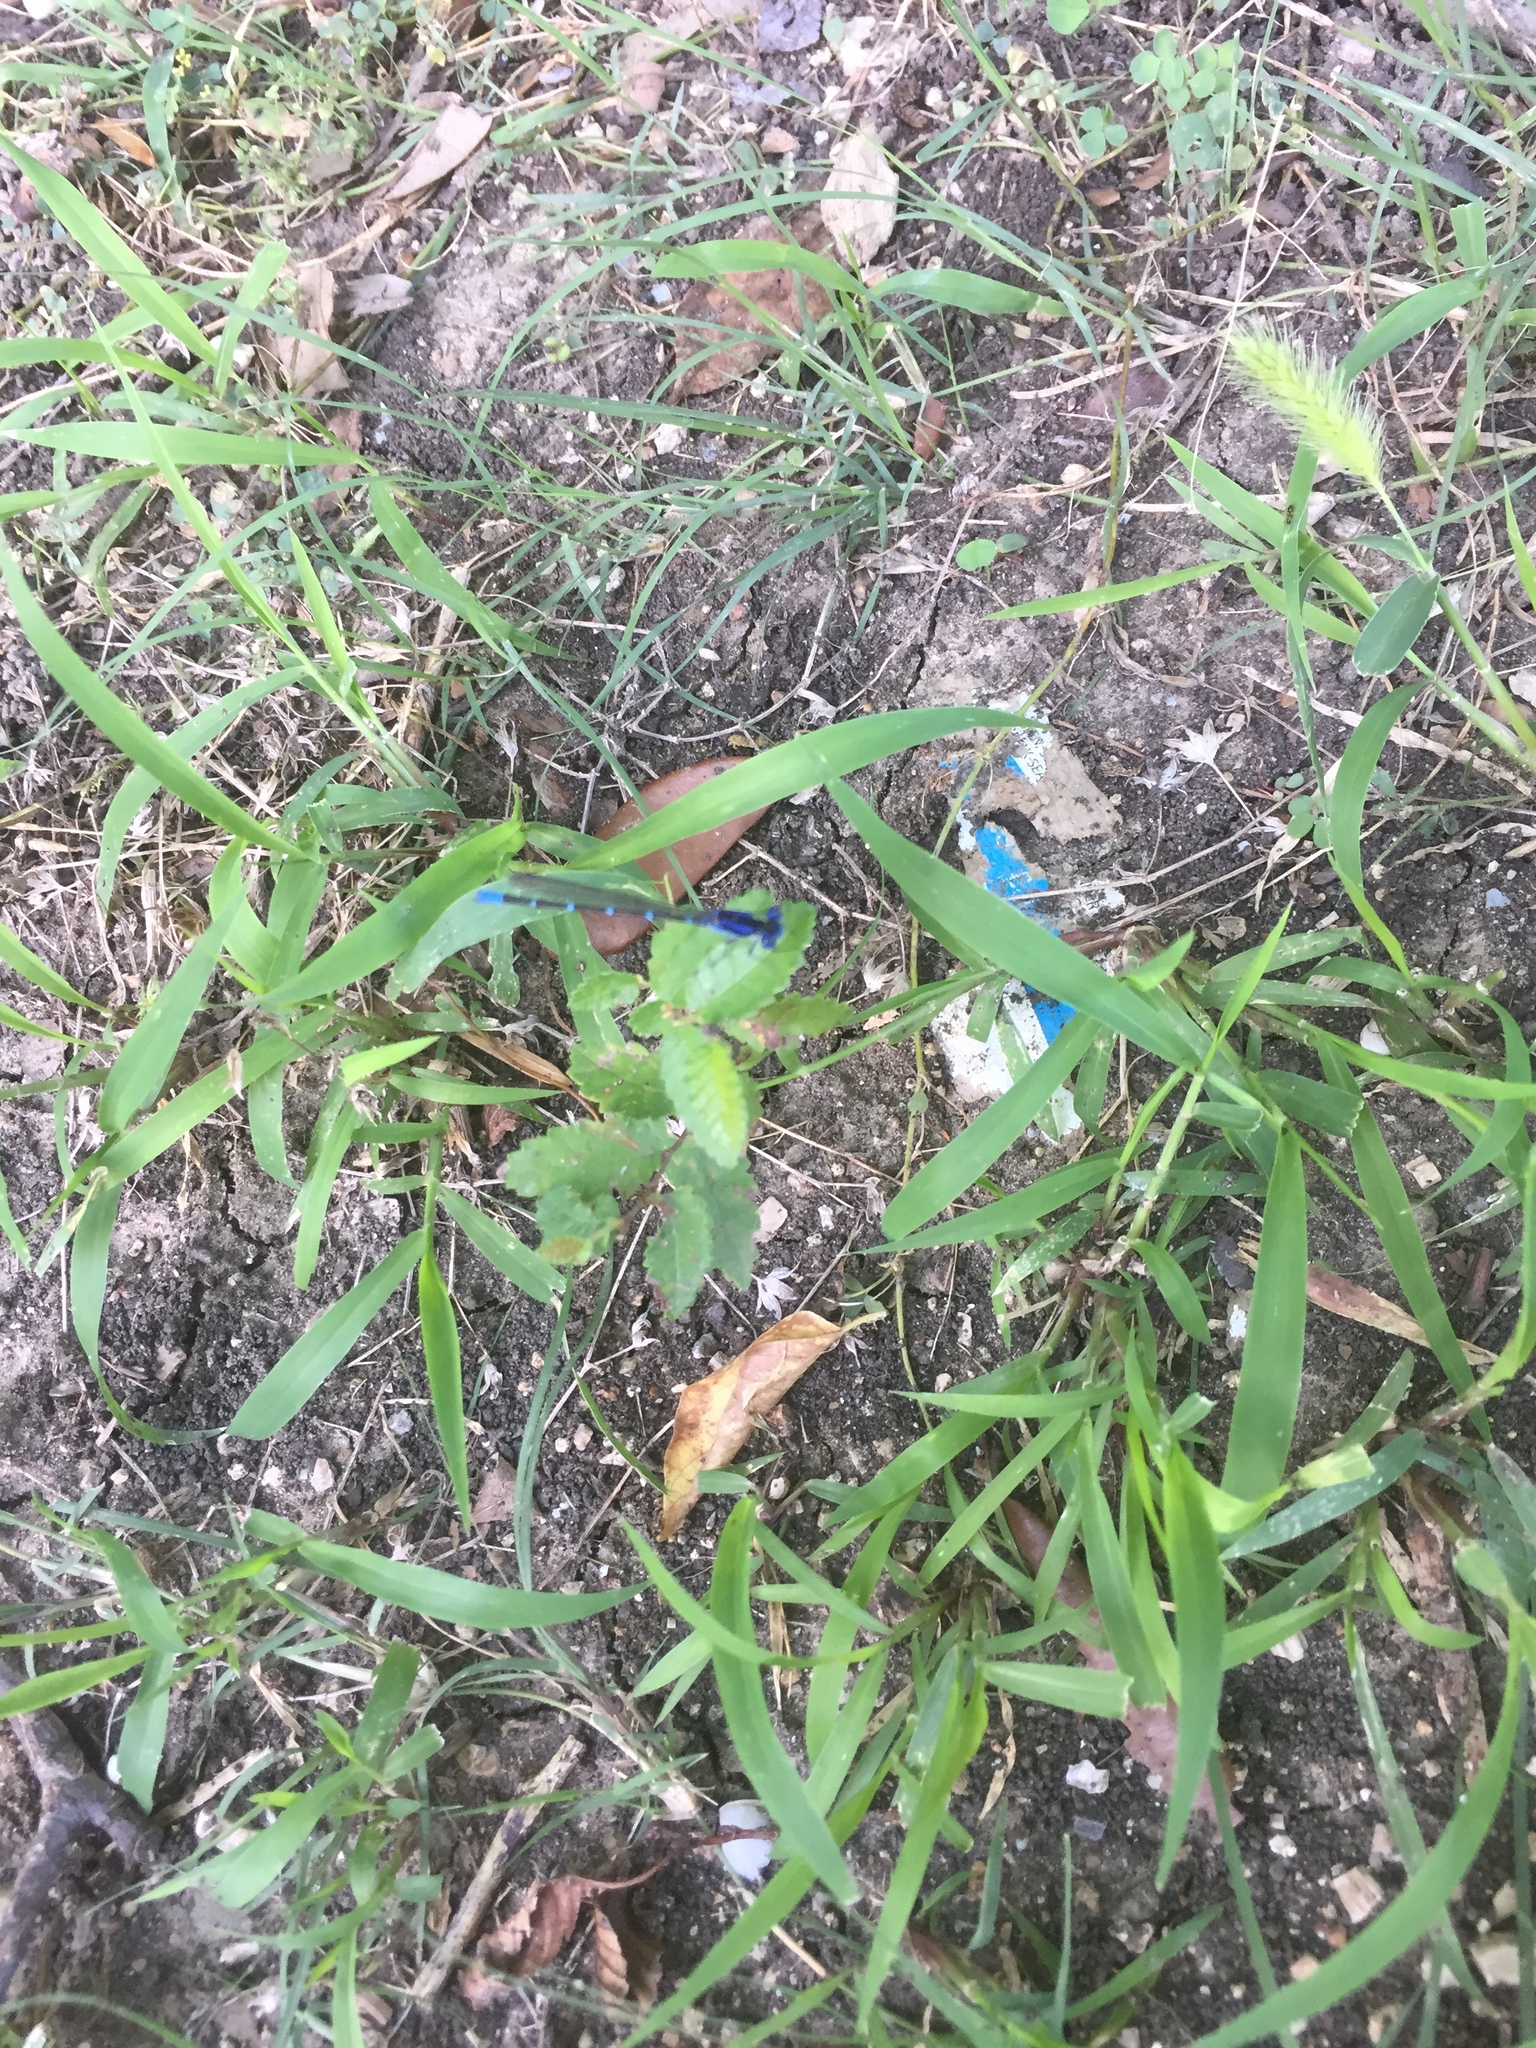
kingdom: Animalia
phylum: Arthropoda
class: Insecta
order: Odonata
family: Coenagrionidae
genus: Argia
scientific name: Argia sedula
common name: Blue-ringed dancer
